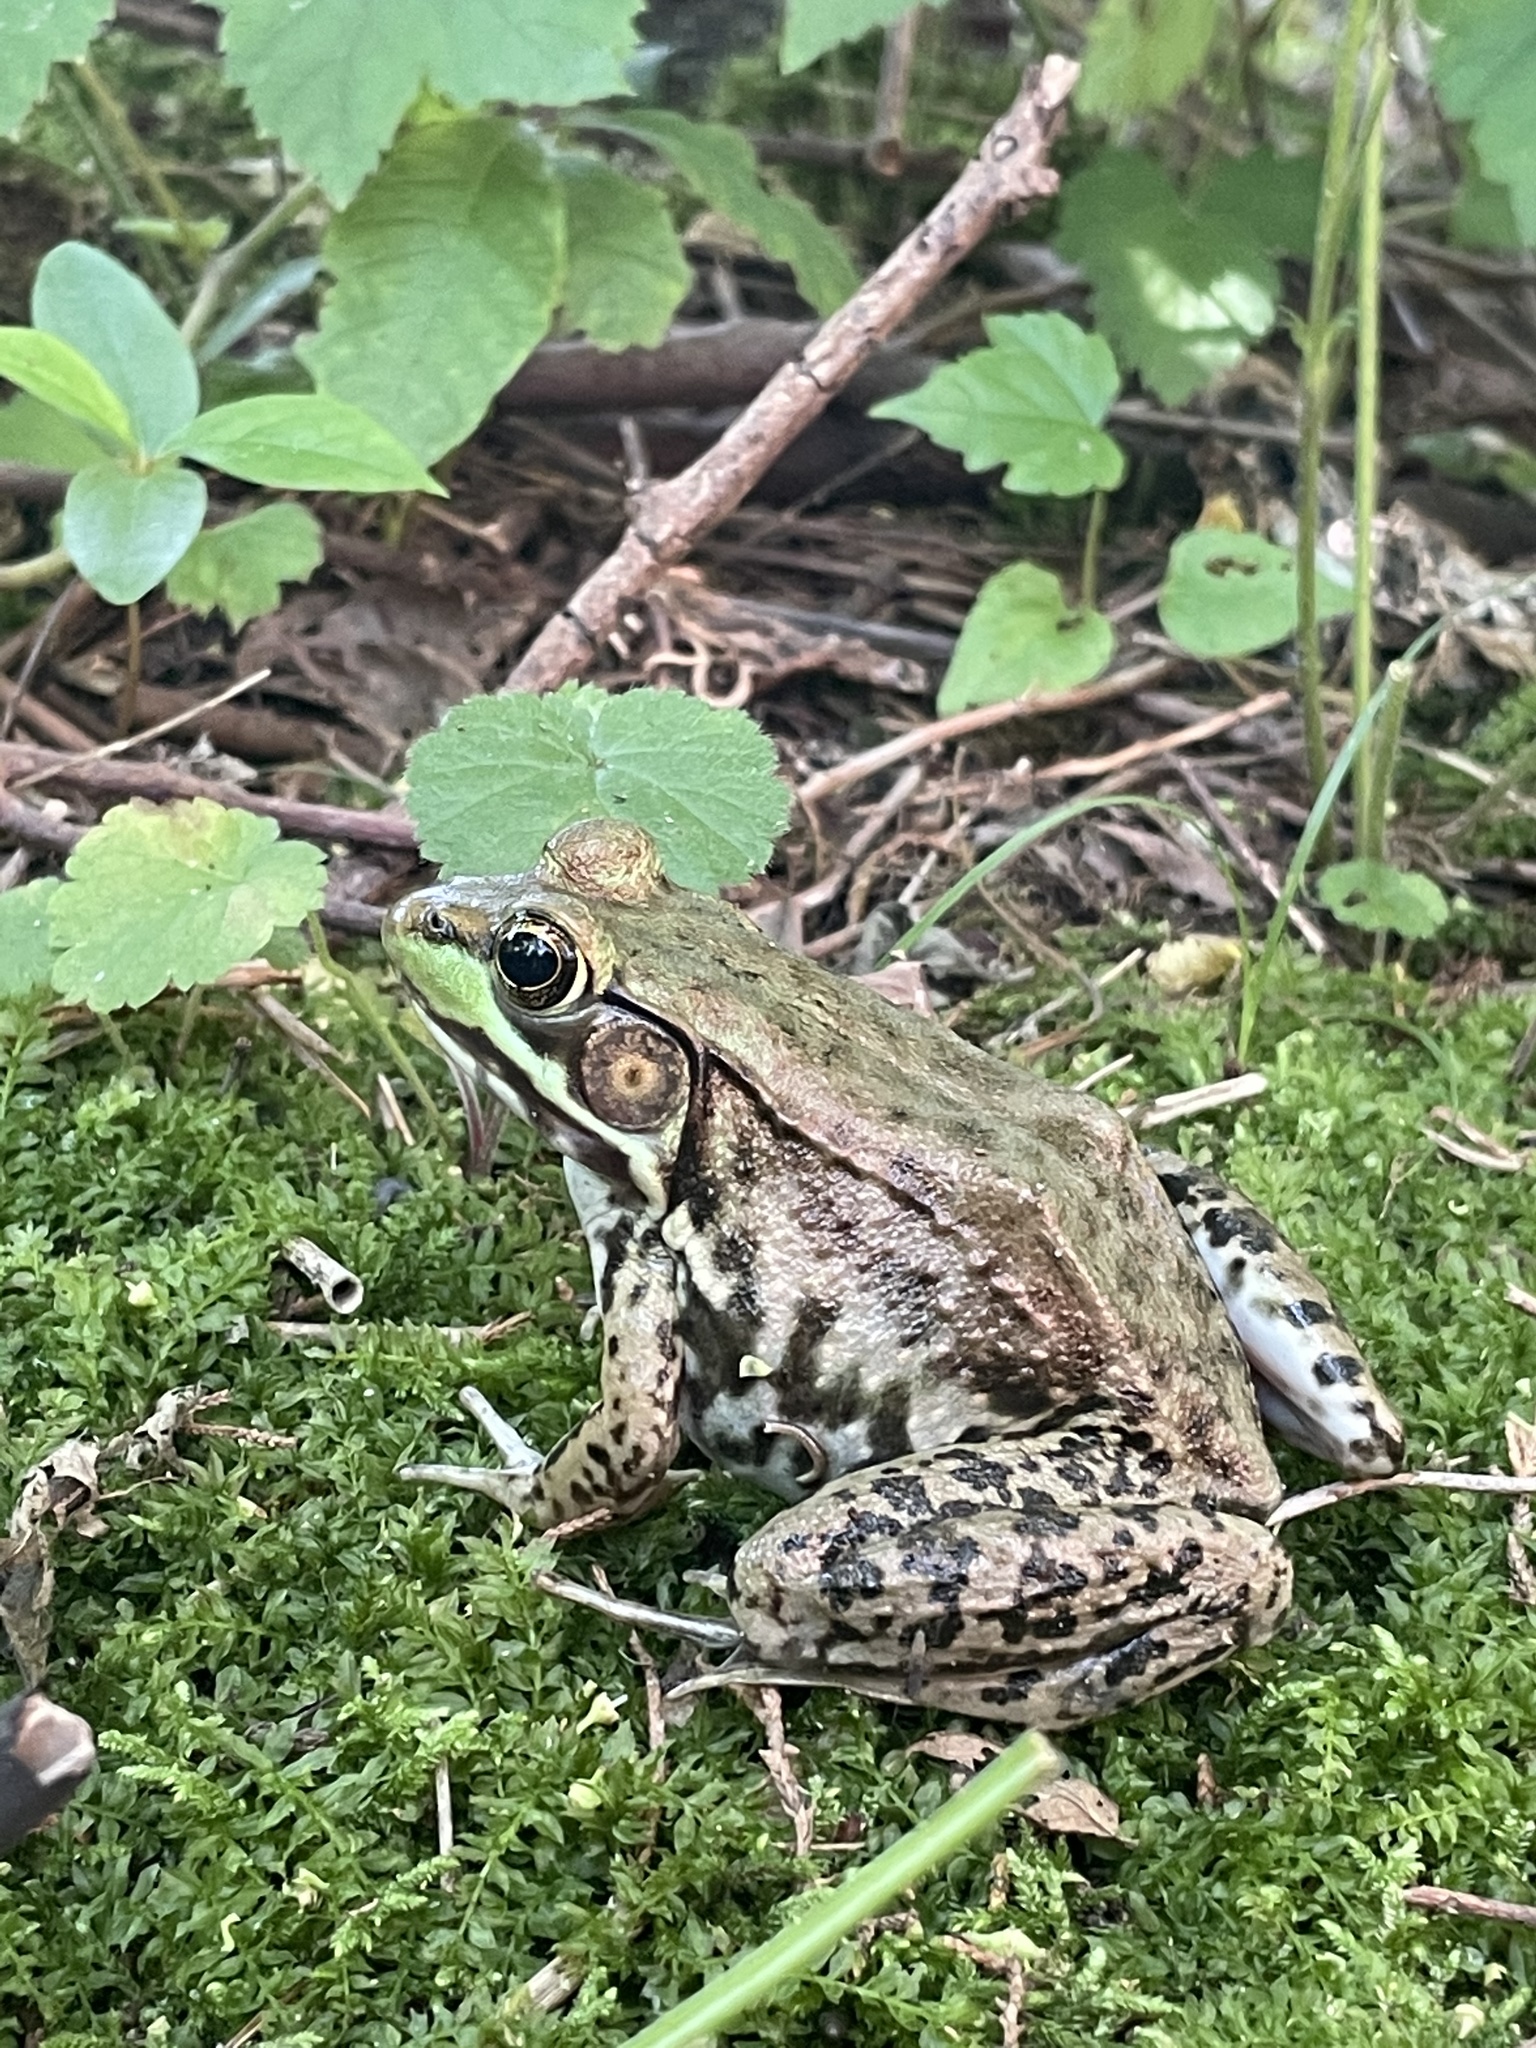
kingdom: Animalia
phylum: Chordata
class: Amphibia
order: Anura
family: Ranidae
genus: Lithobates
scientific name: Lithobates clamitans
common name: Green frog
